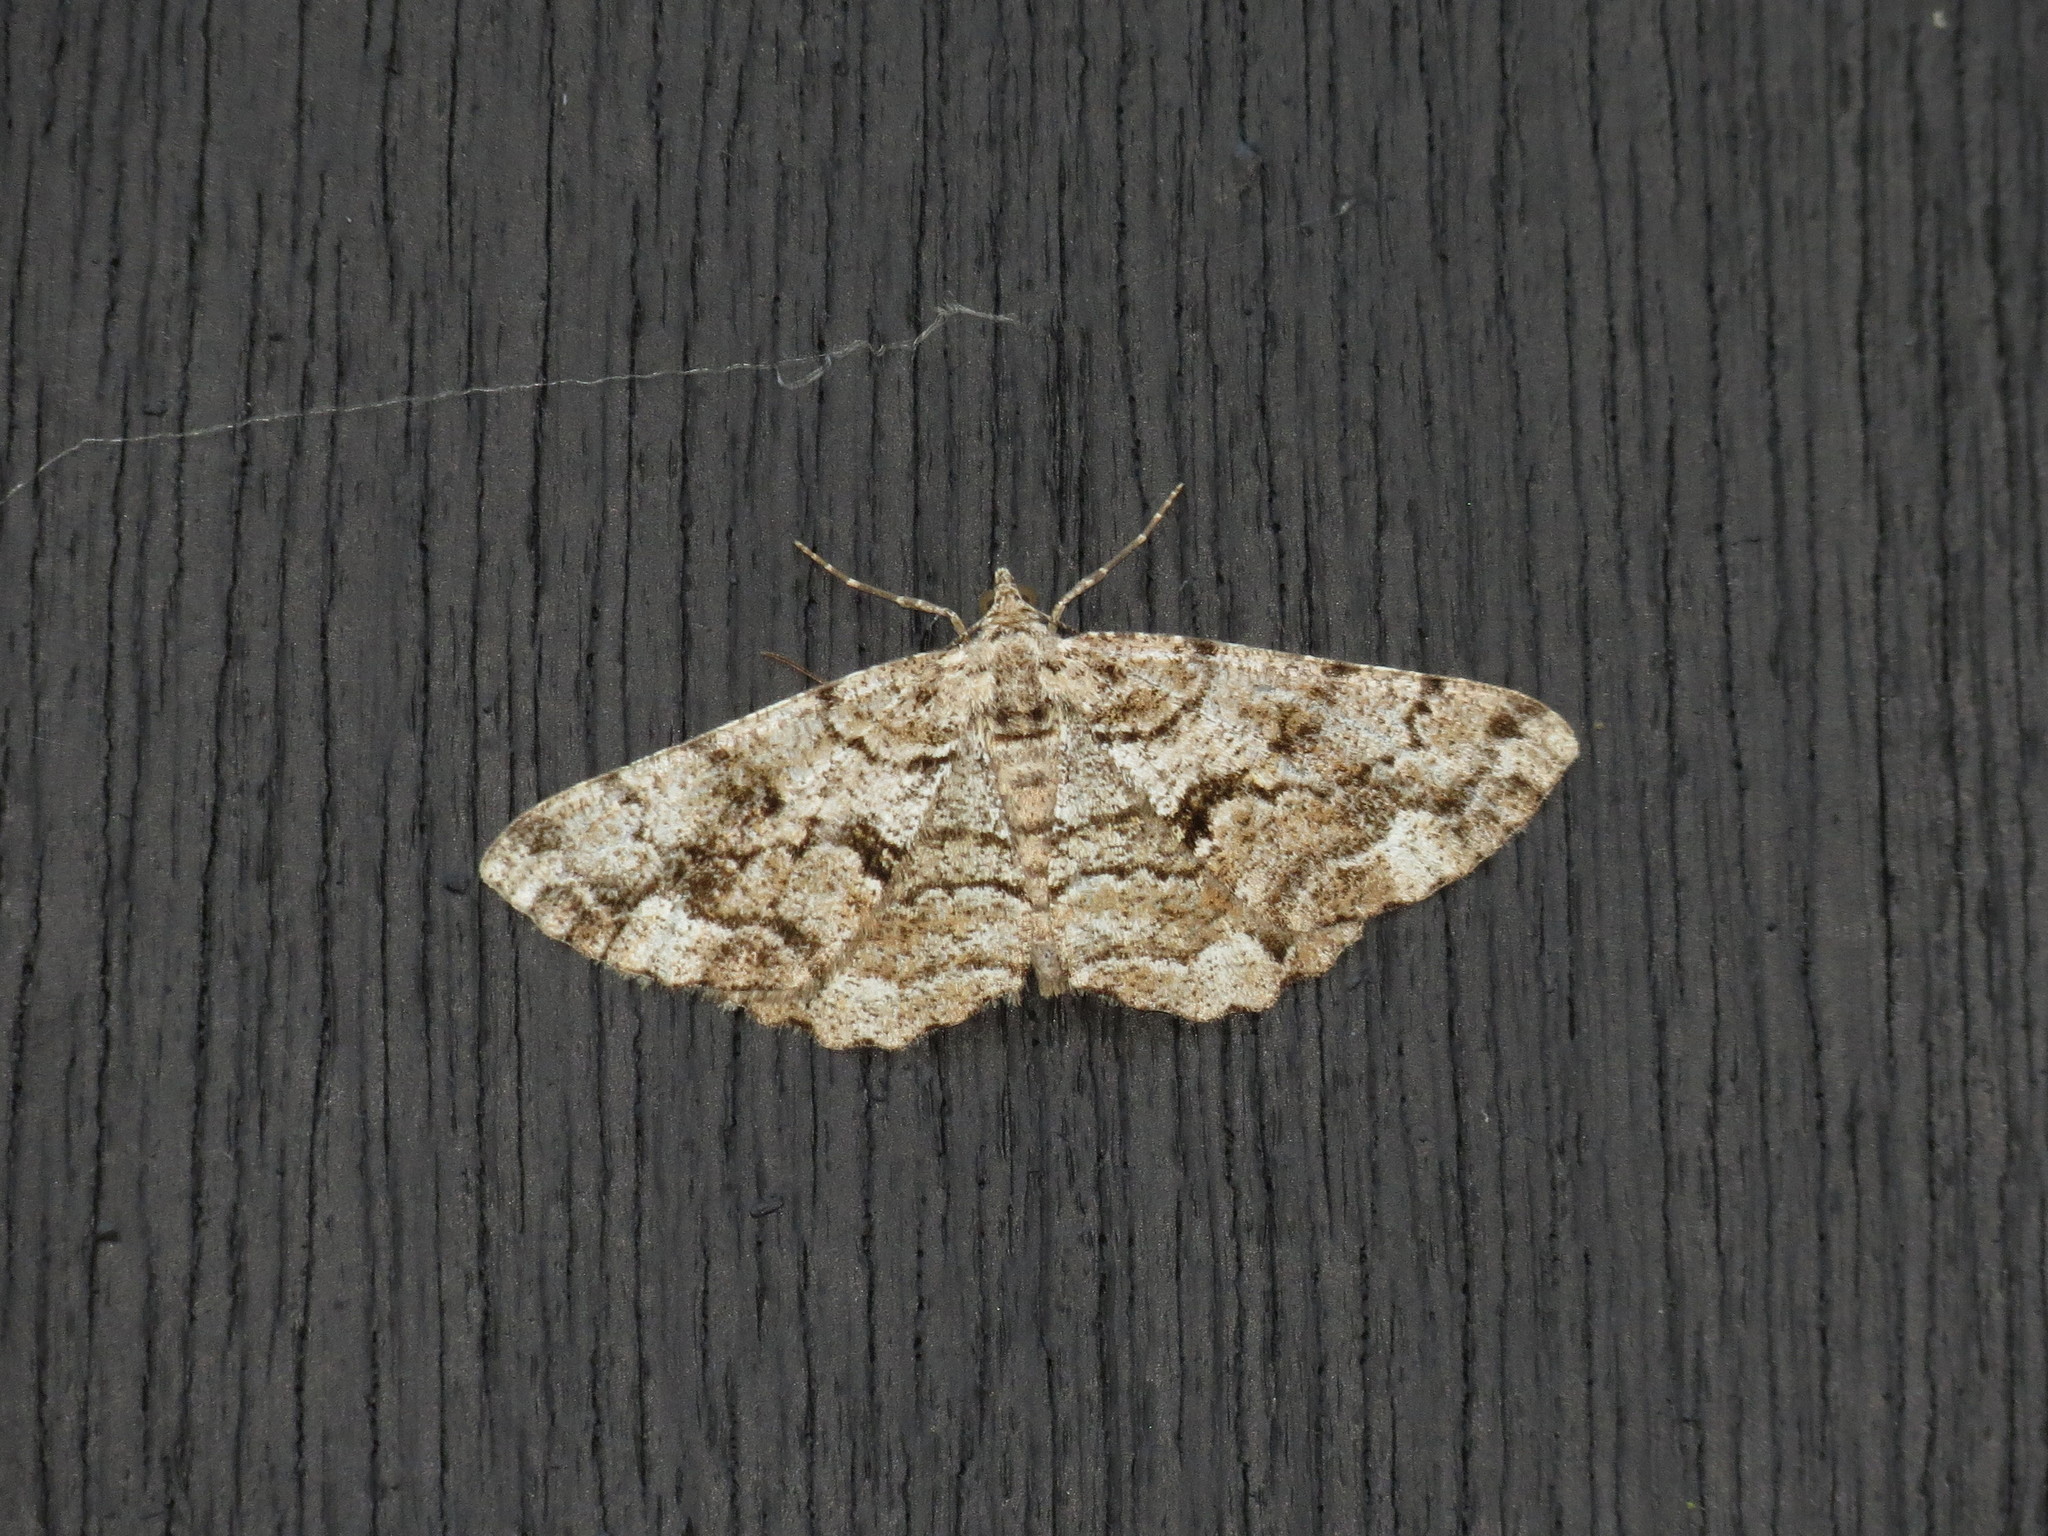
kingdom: Animalia
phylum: Arthropoda
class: Insecta
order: Lepidoptera
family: Geometridae
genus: Peribatodes
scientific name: Peribatodes secundaria
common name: Feathered beauty
